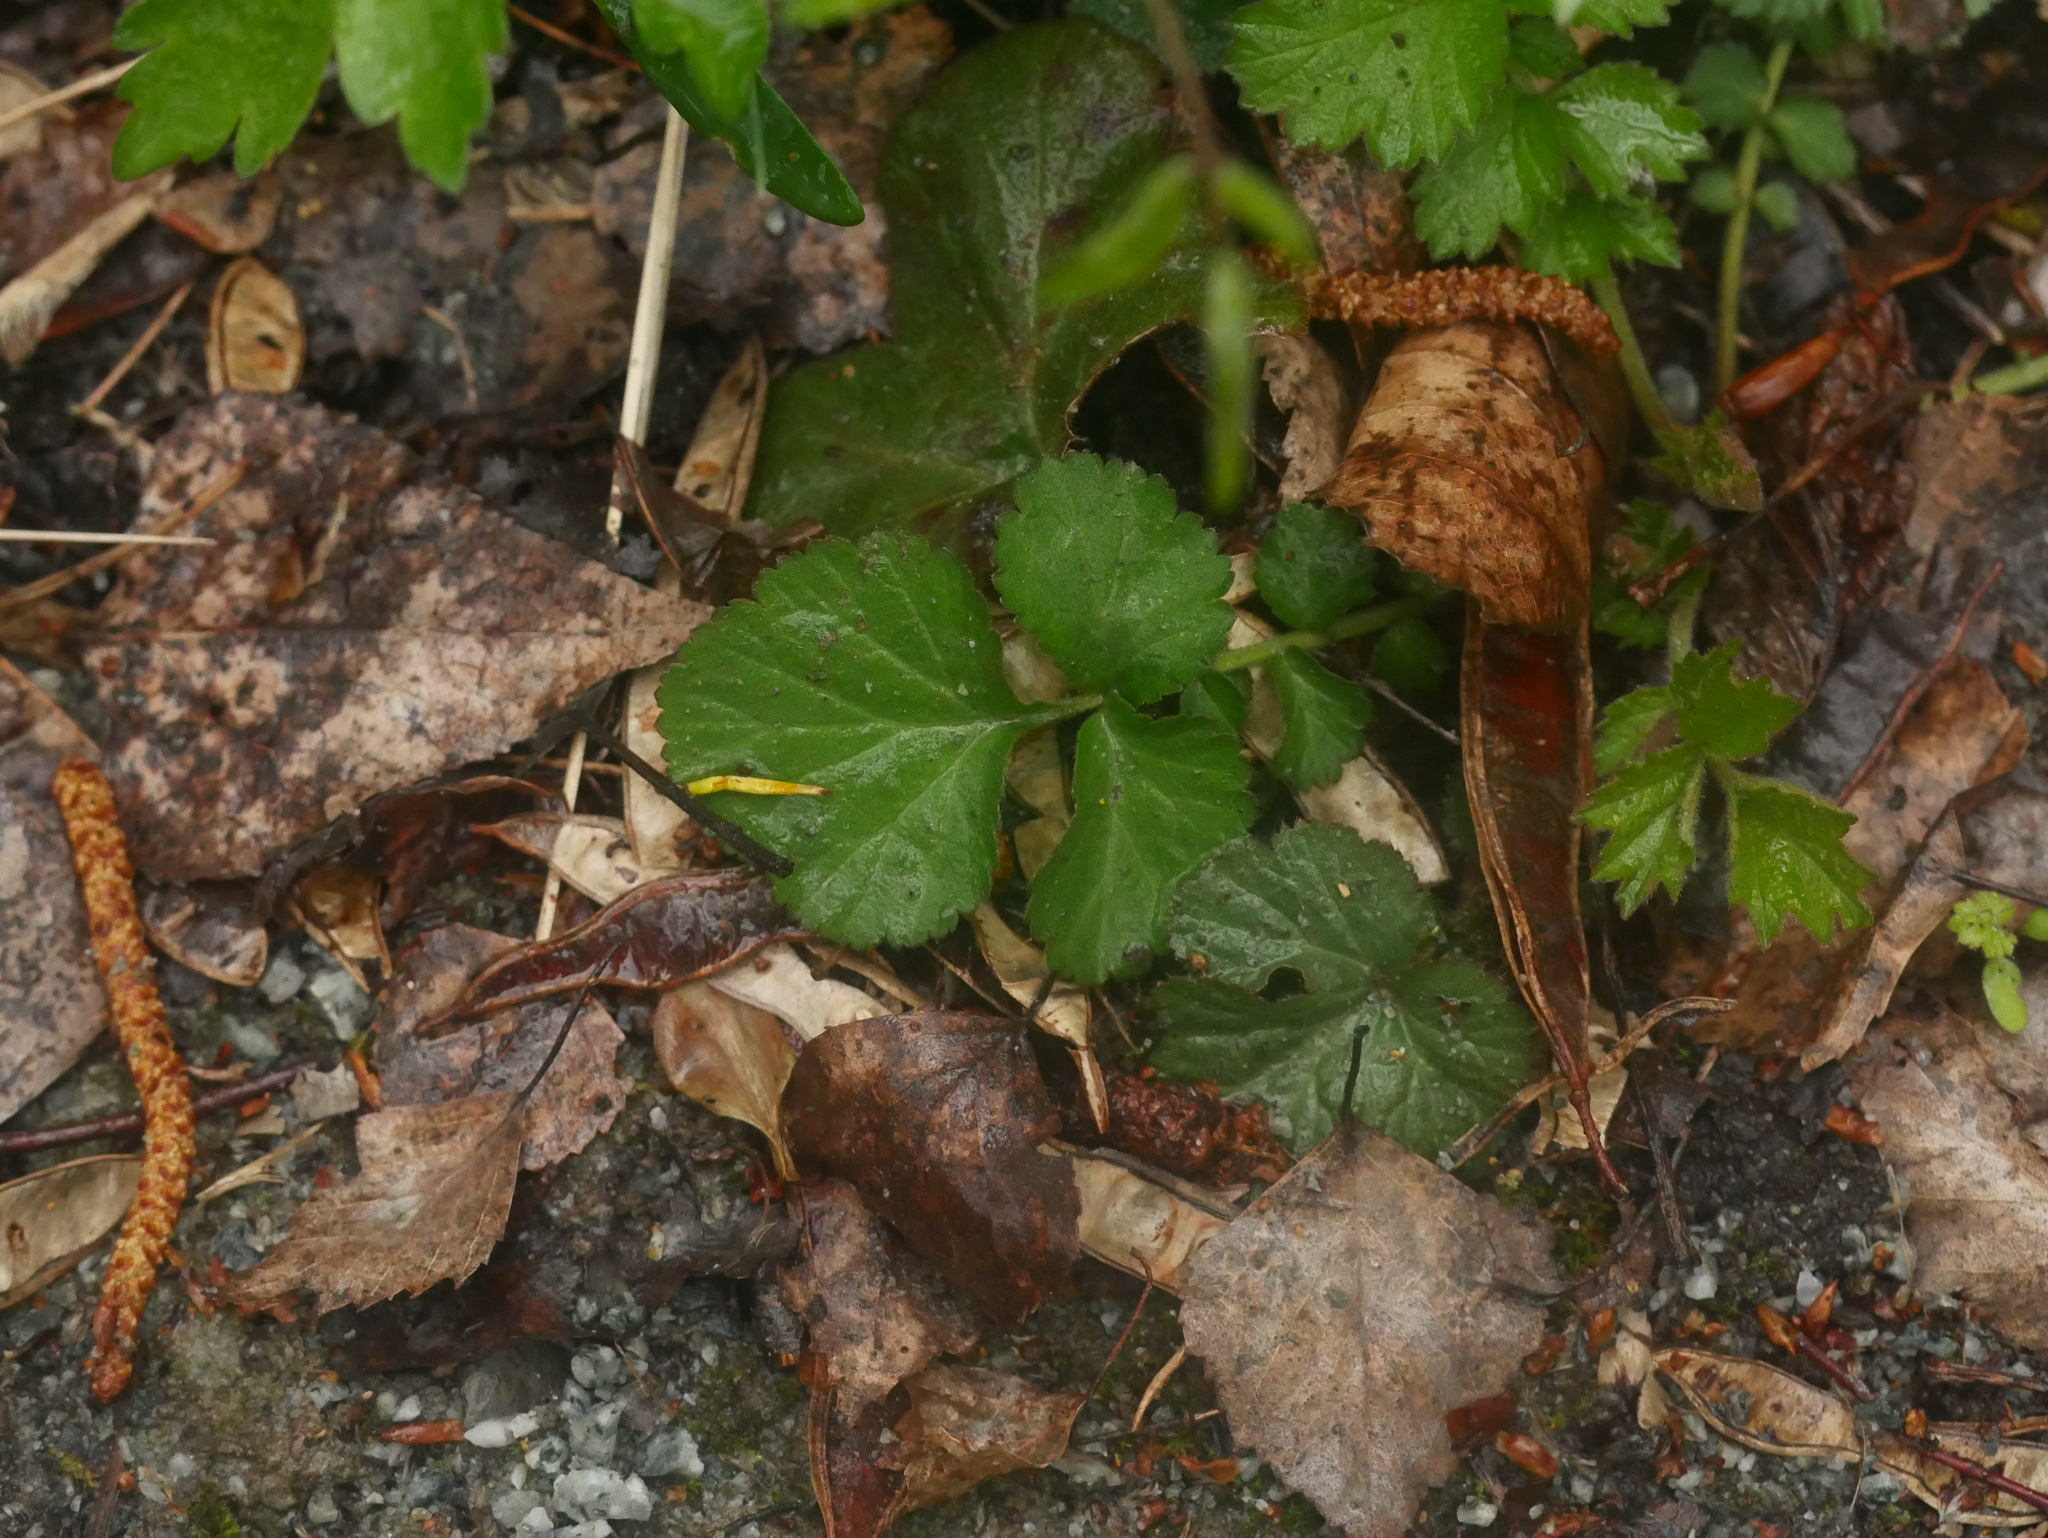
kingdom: Plantae
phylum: Tracheophyta
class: Magnoliopsida
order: Rosales
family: Rosaceae
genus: Geum
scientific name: Geum urbanum
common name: Wood avens
